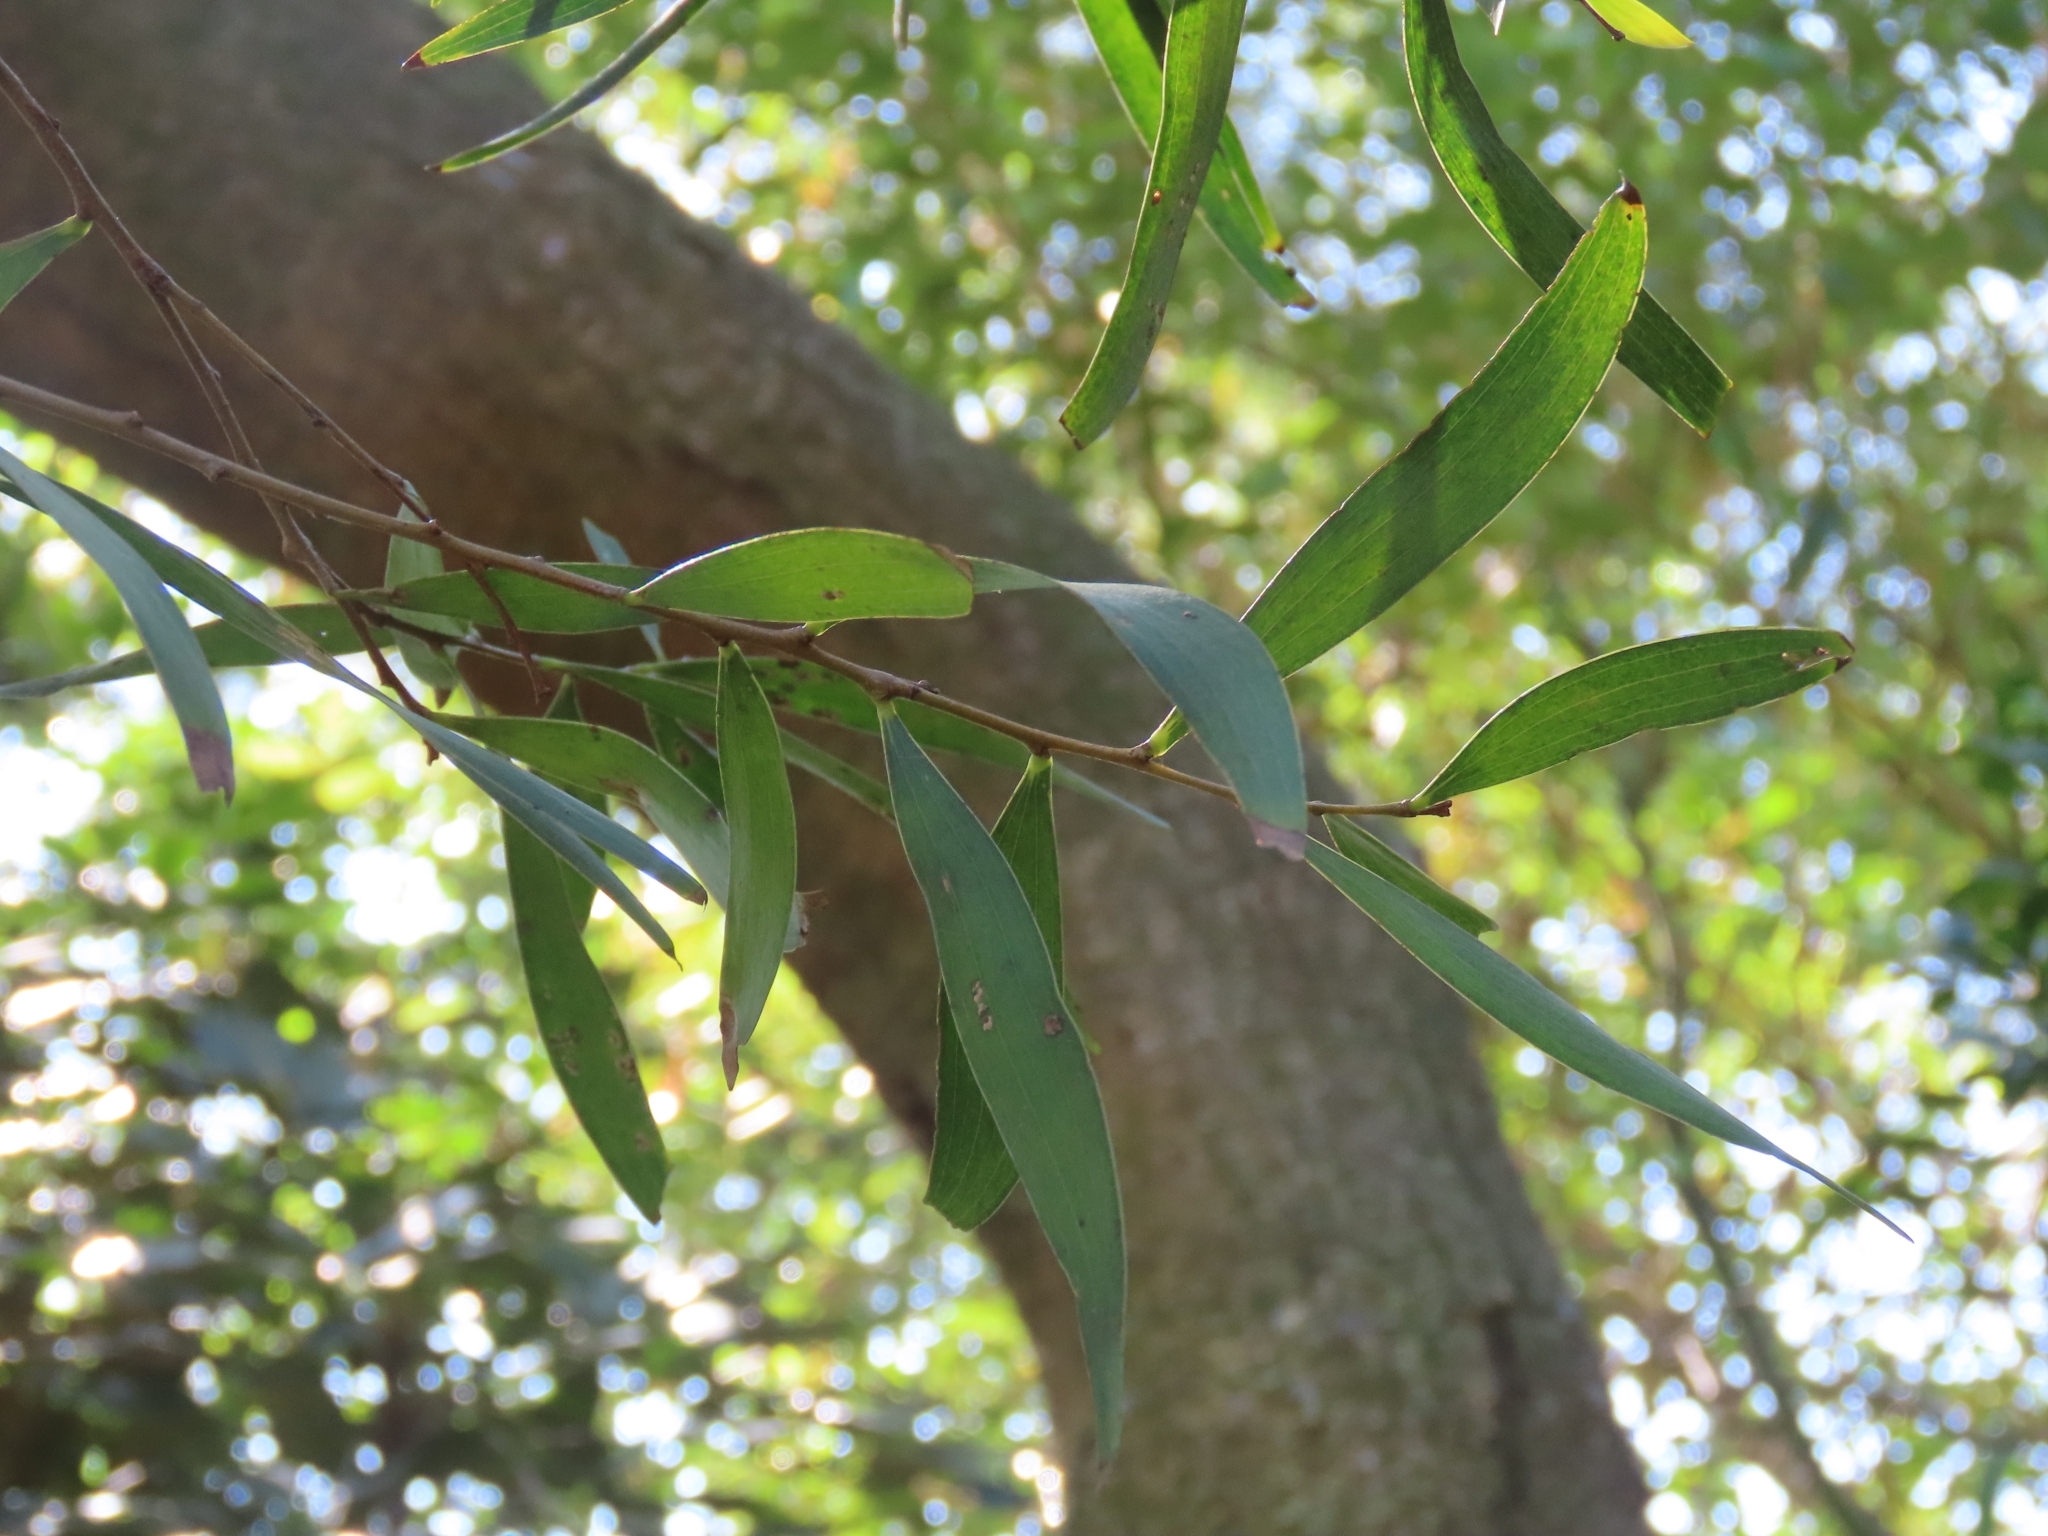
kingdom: Plantae
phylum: Tracheophyta
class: Magnoliopsida
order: Fabales
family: Fabaceae
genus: Acacia
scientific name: Acacia confusa
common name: Formosan koa
